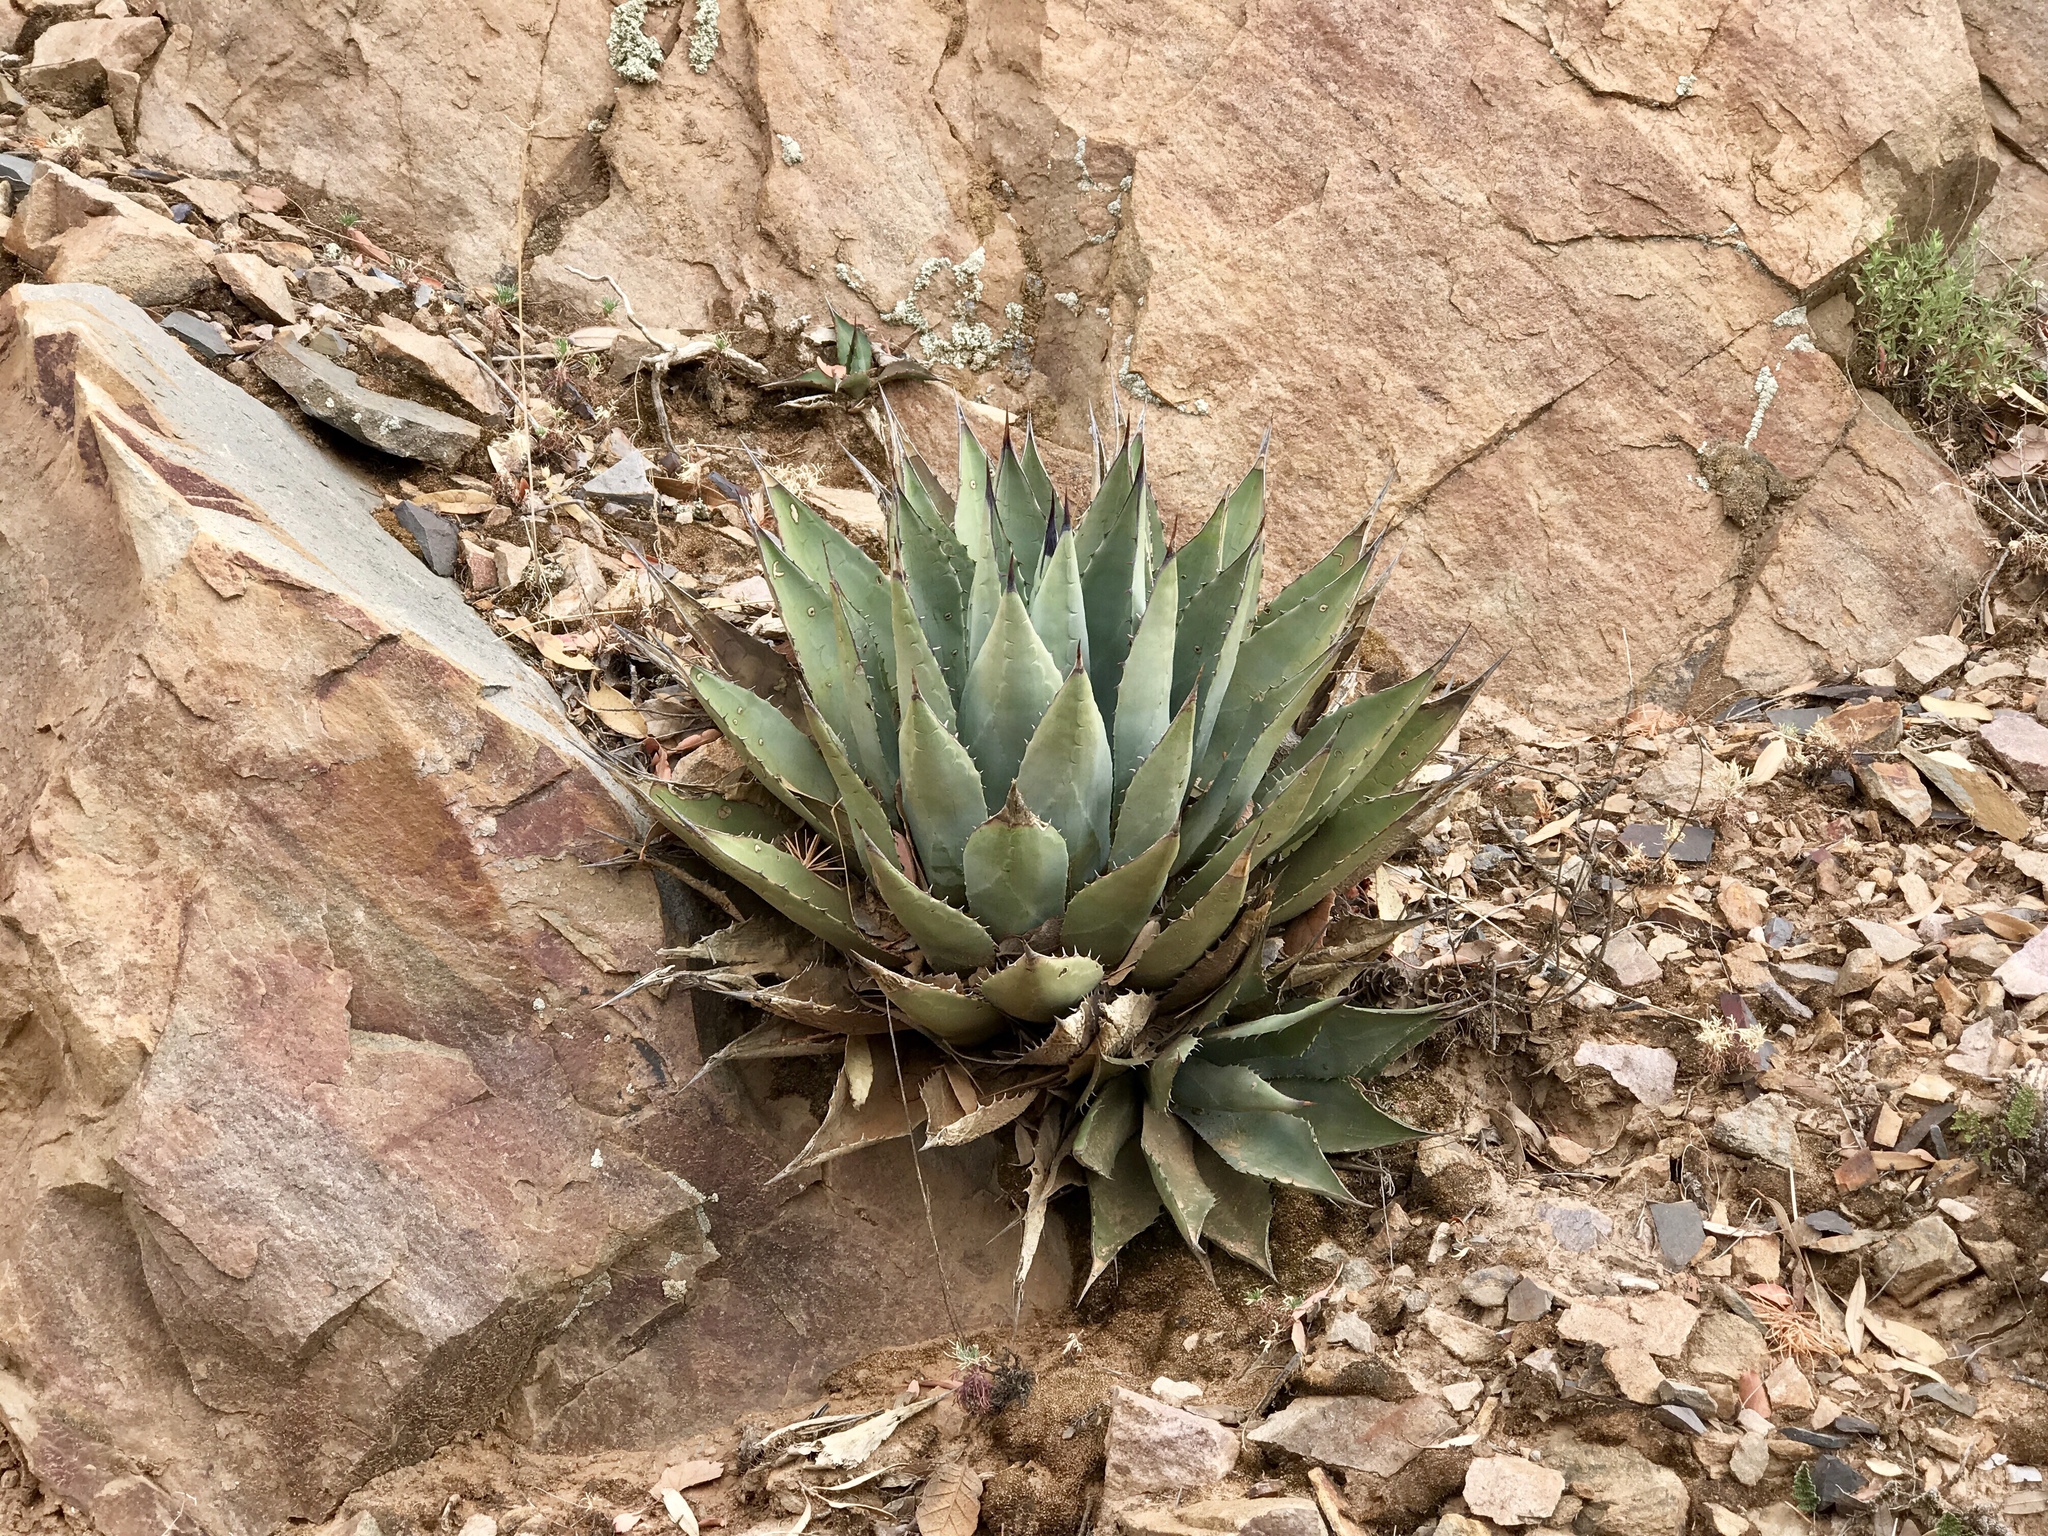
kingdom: Plantae
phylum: Tracheophyta
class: Liliopsida
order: Asparagales
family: Asparagaceae
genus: Agave
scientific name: Agave parryi
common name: Parry's agave
